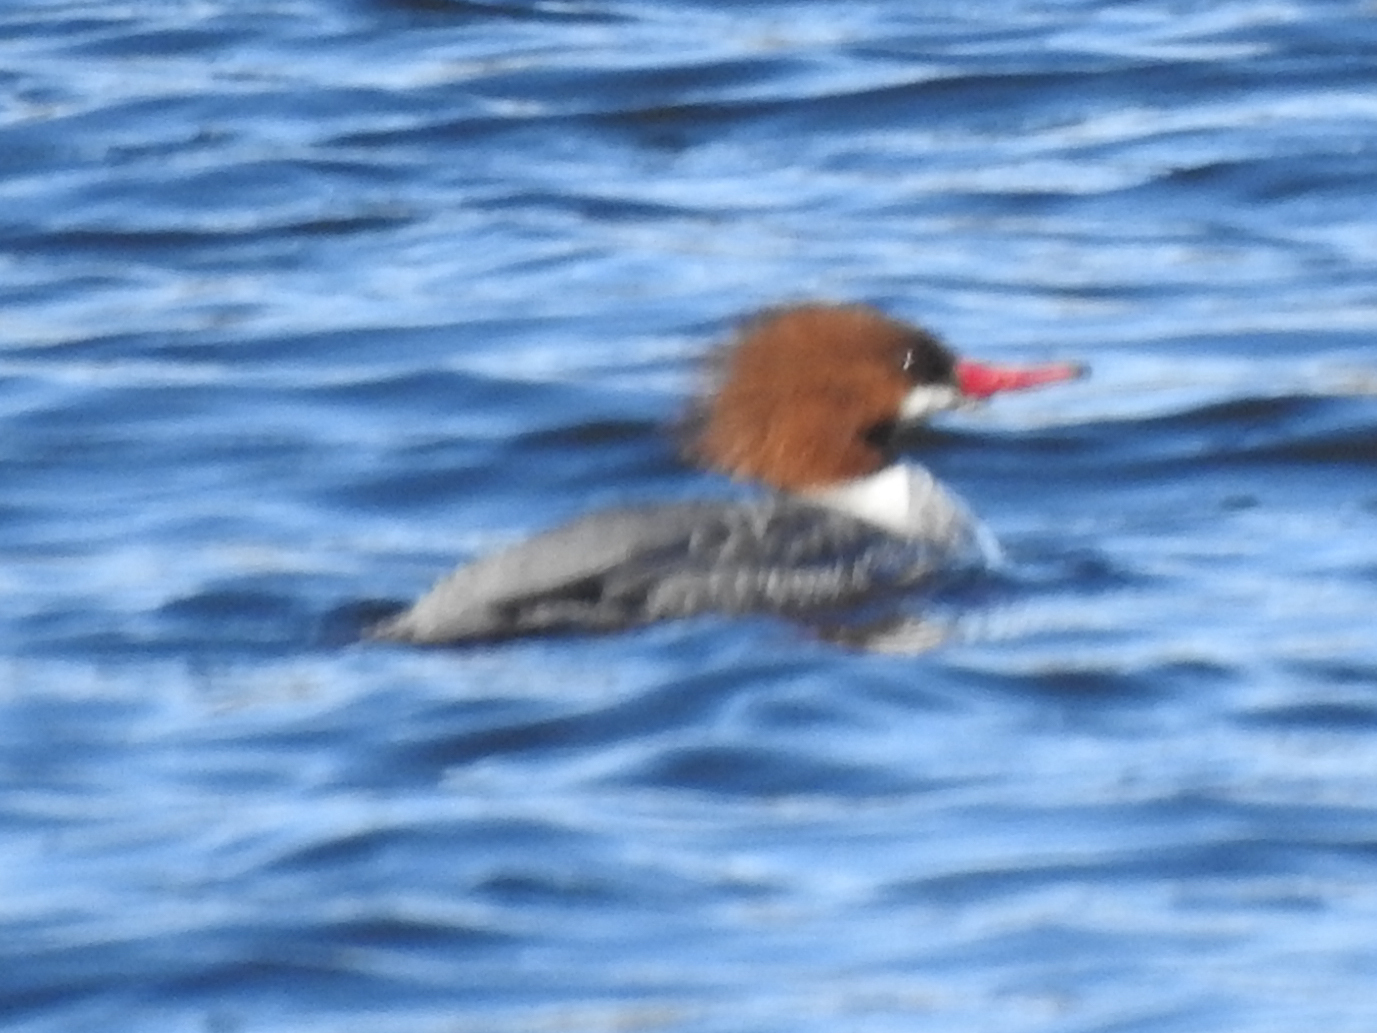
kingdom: Animalia
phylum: Chordata
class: Aves
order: Anseriformes
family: Anatidae
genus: Mergus
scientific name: Mergus merganser
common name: Common merganser
